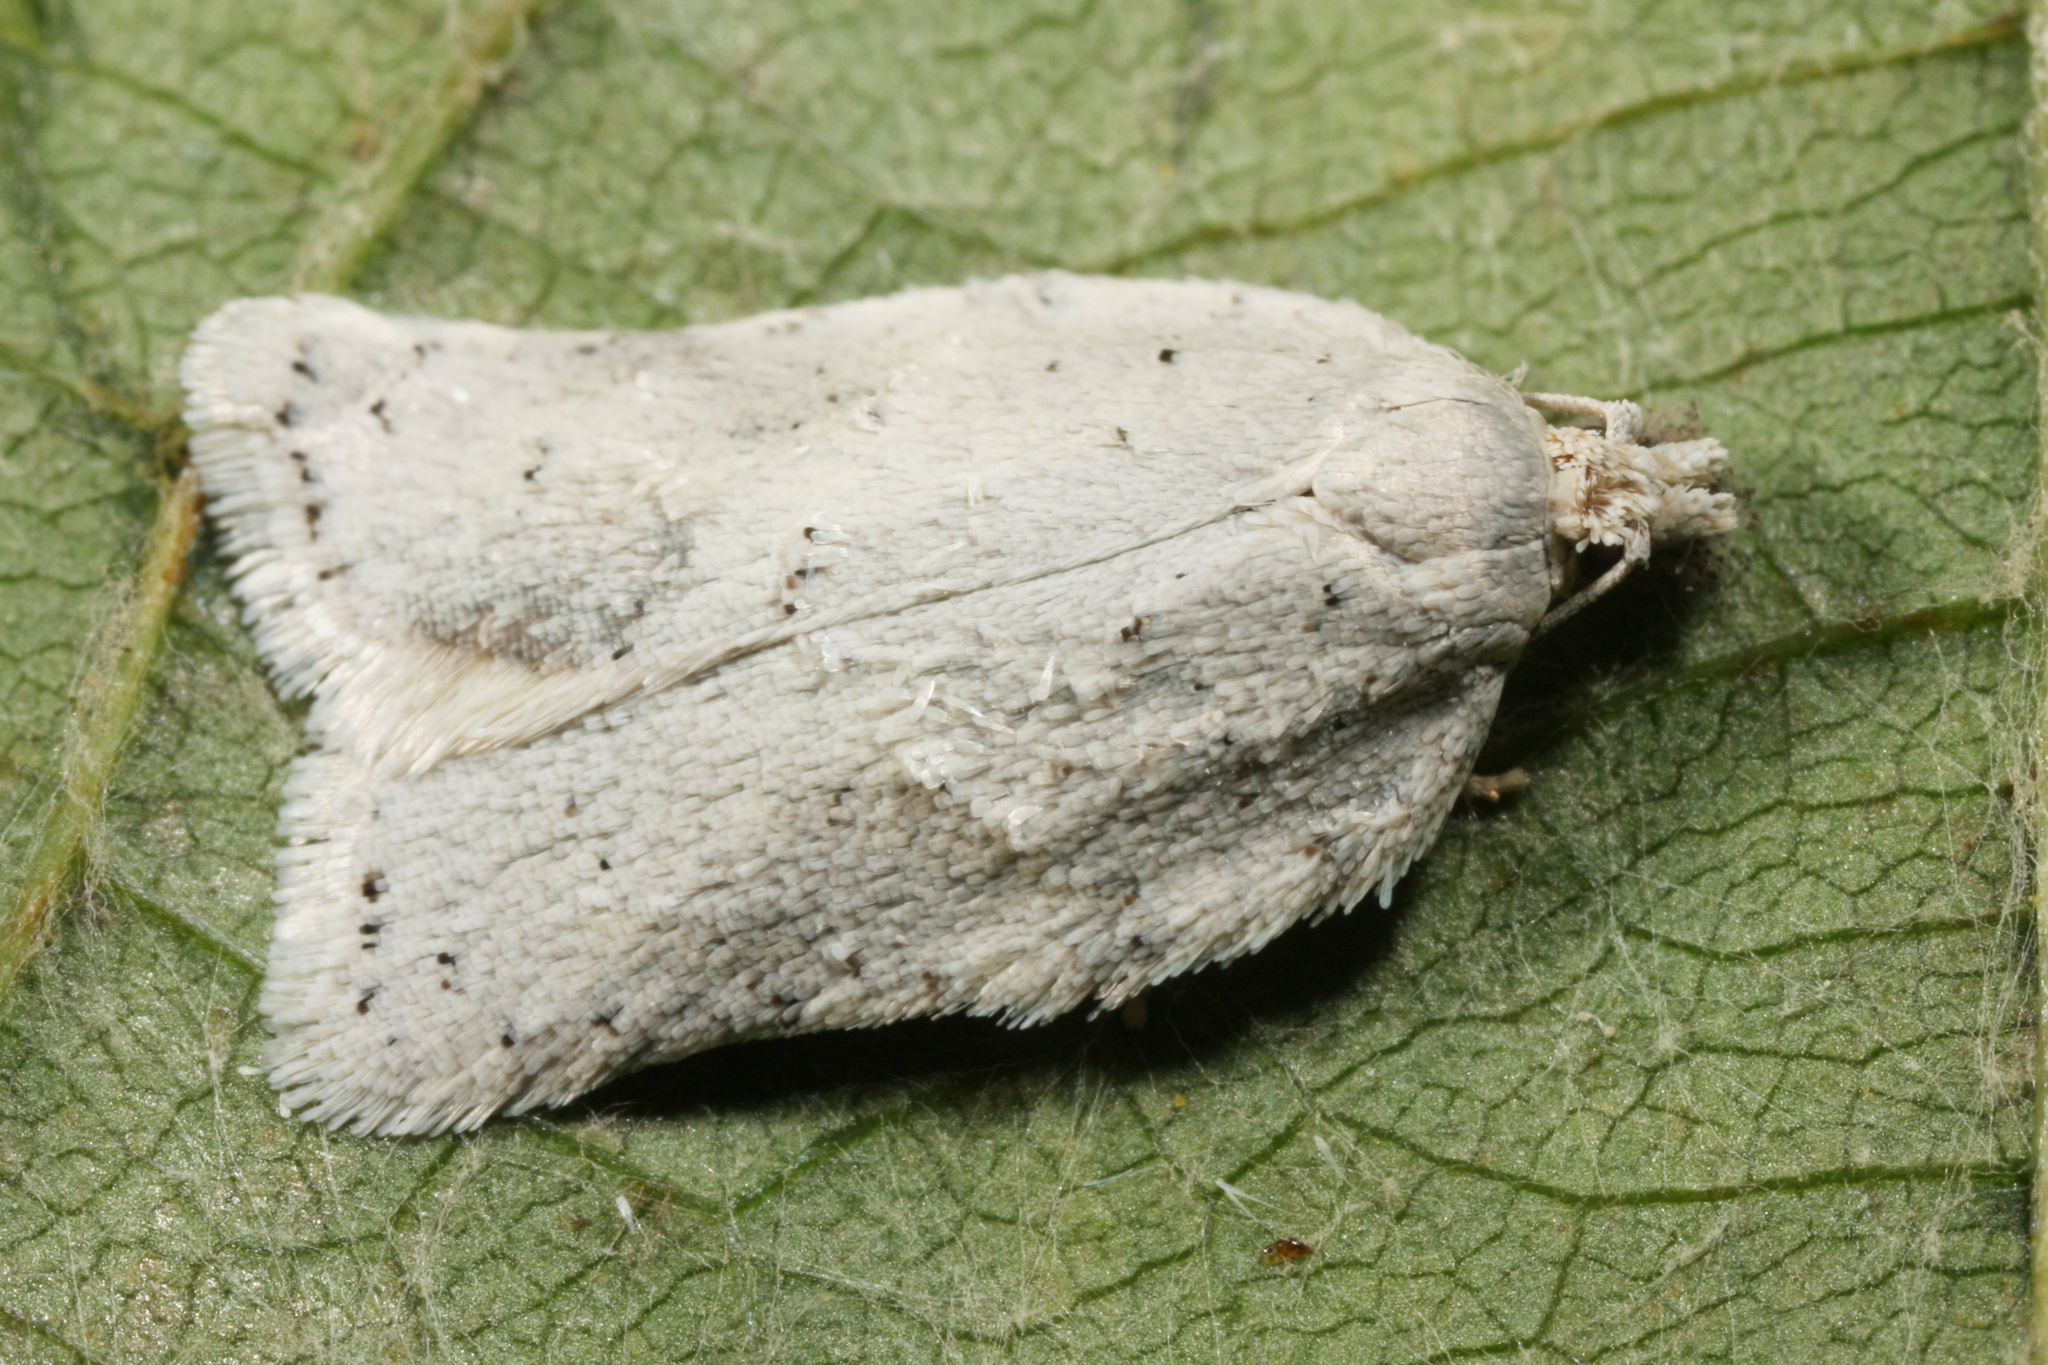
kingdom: Animalia
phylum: Arthropoda
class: Insecta
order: Lepidoptera
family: Tortricidae
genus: Acleris
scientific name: Acleris logiana
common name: Grey birch button
